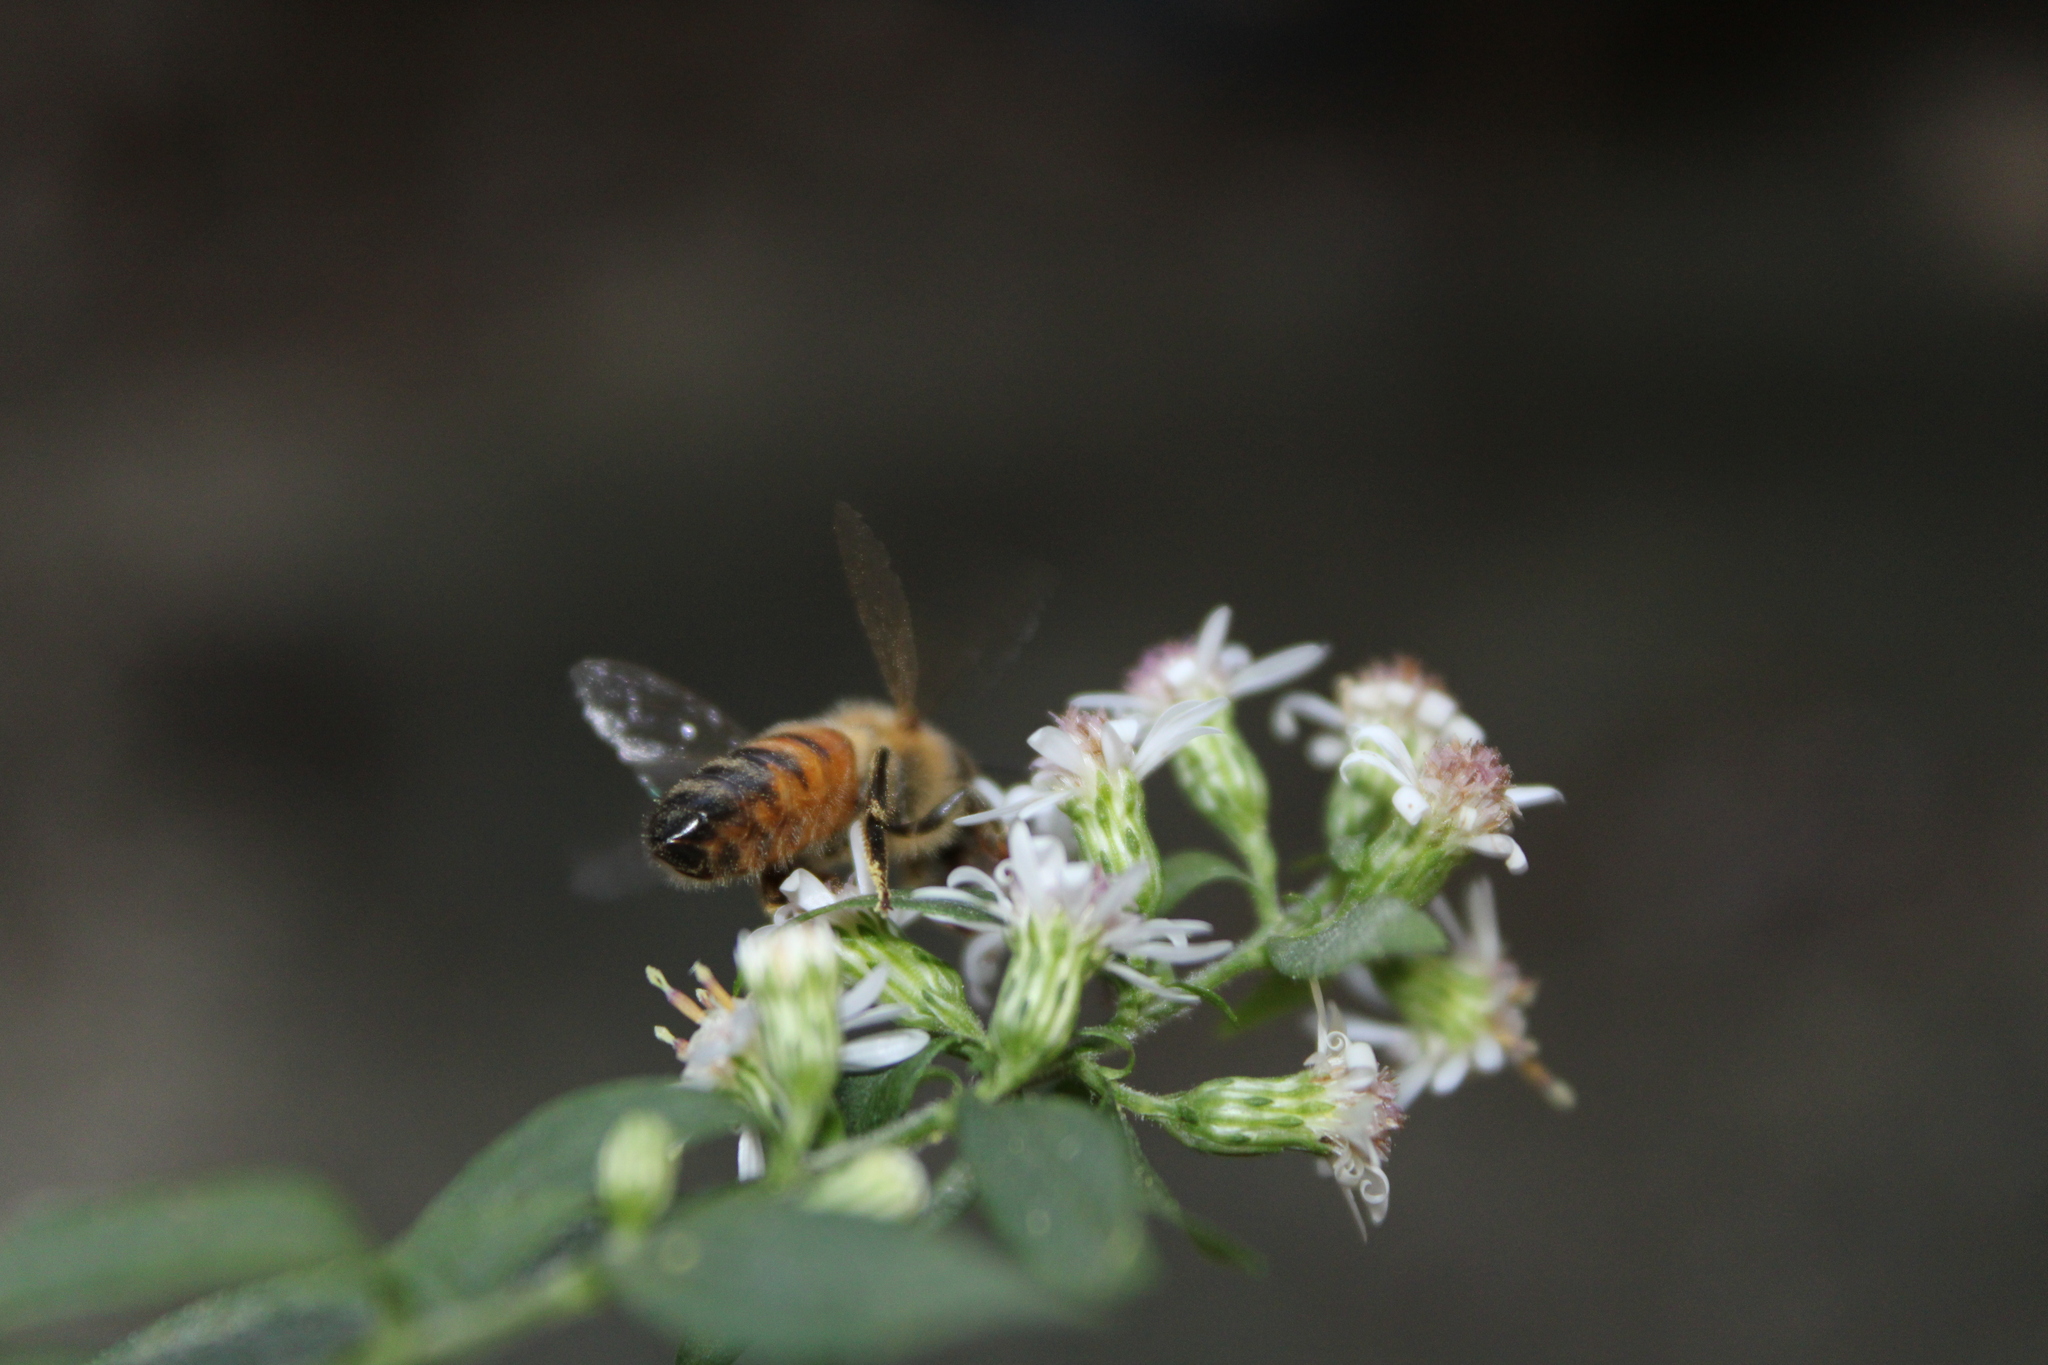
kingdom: Animalia
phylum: Arthropoda
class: Insecta
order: Hymenoptera
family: Apidae
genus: Apis
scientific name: Apis mellifera
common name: Honey bee
